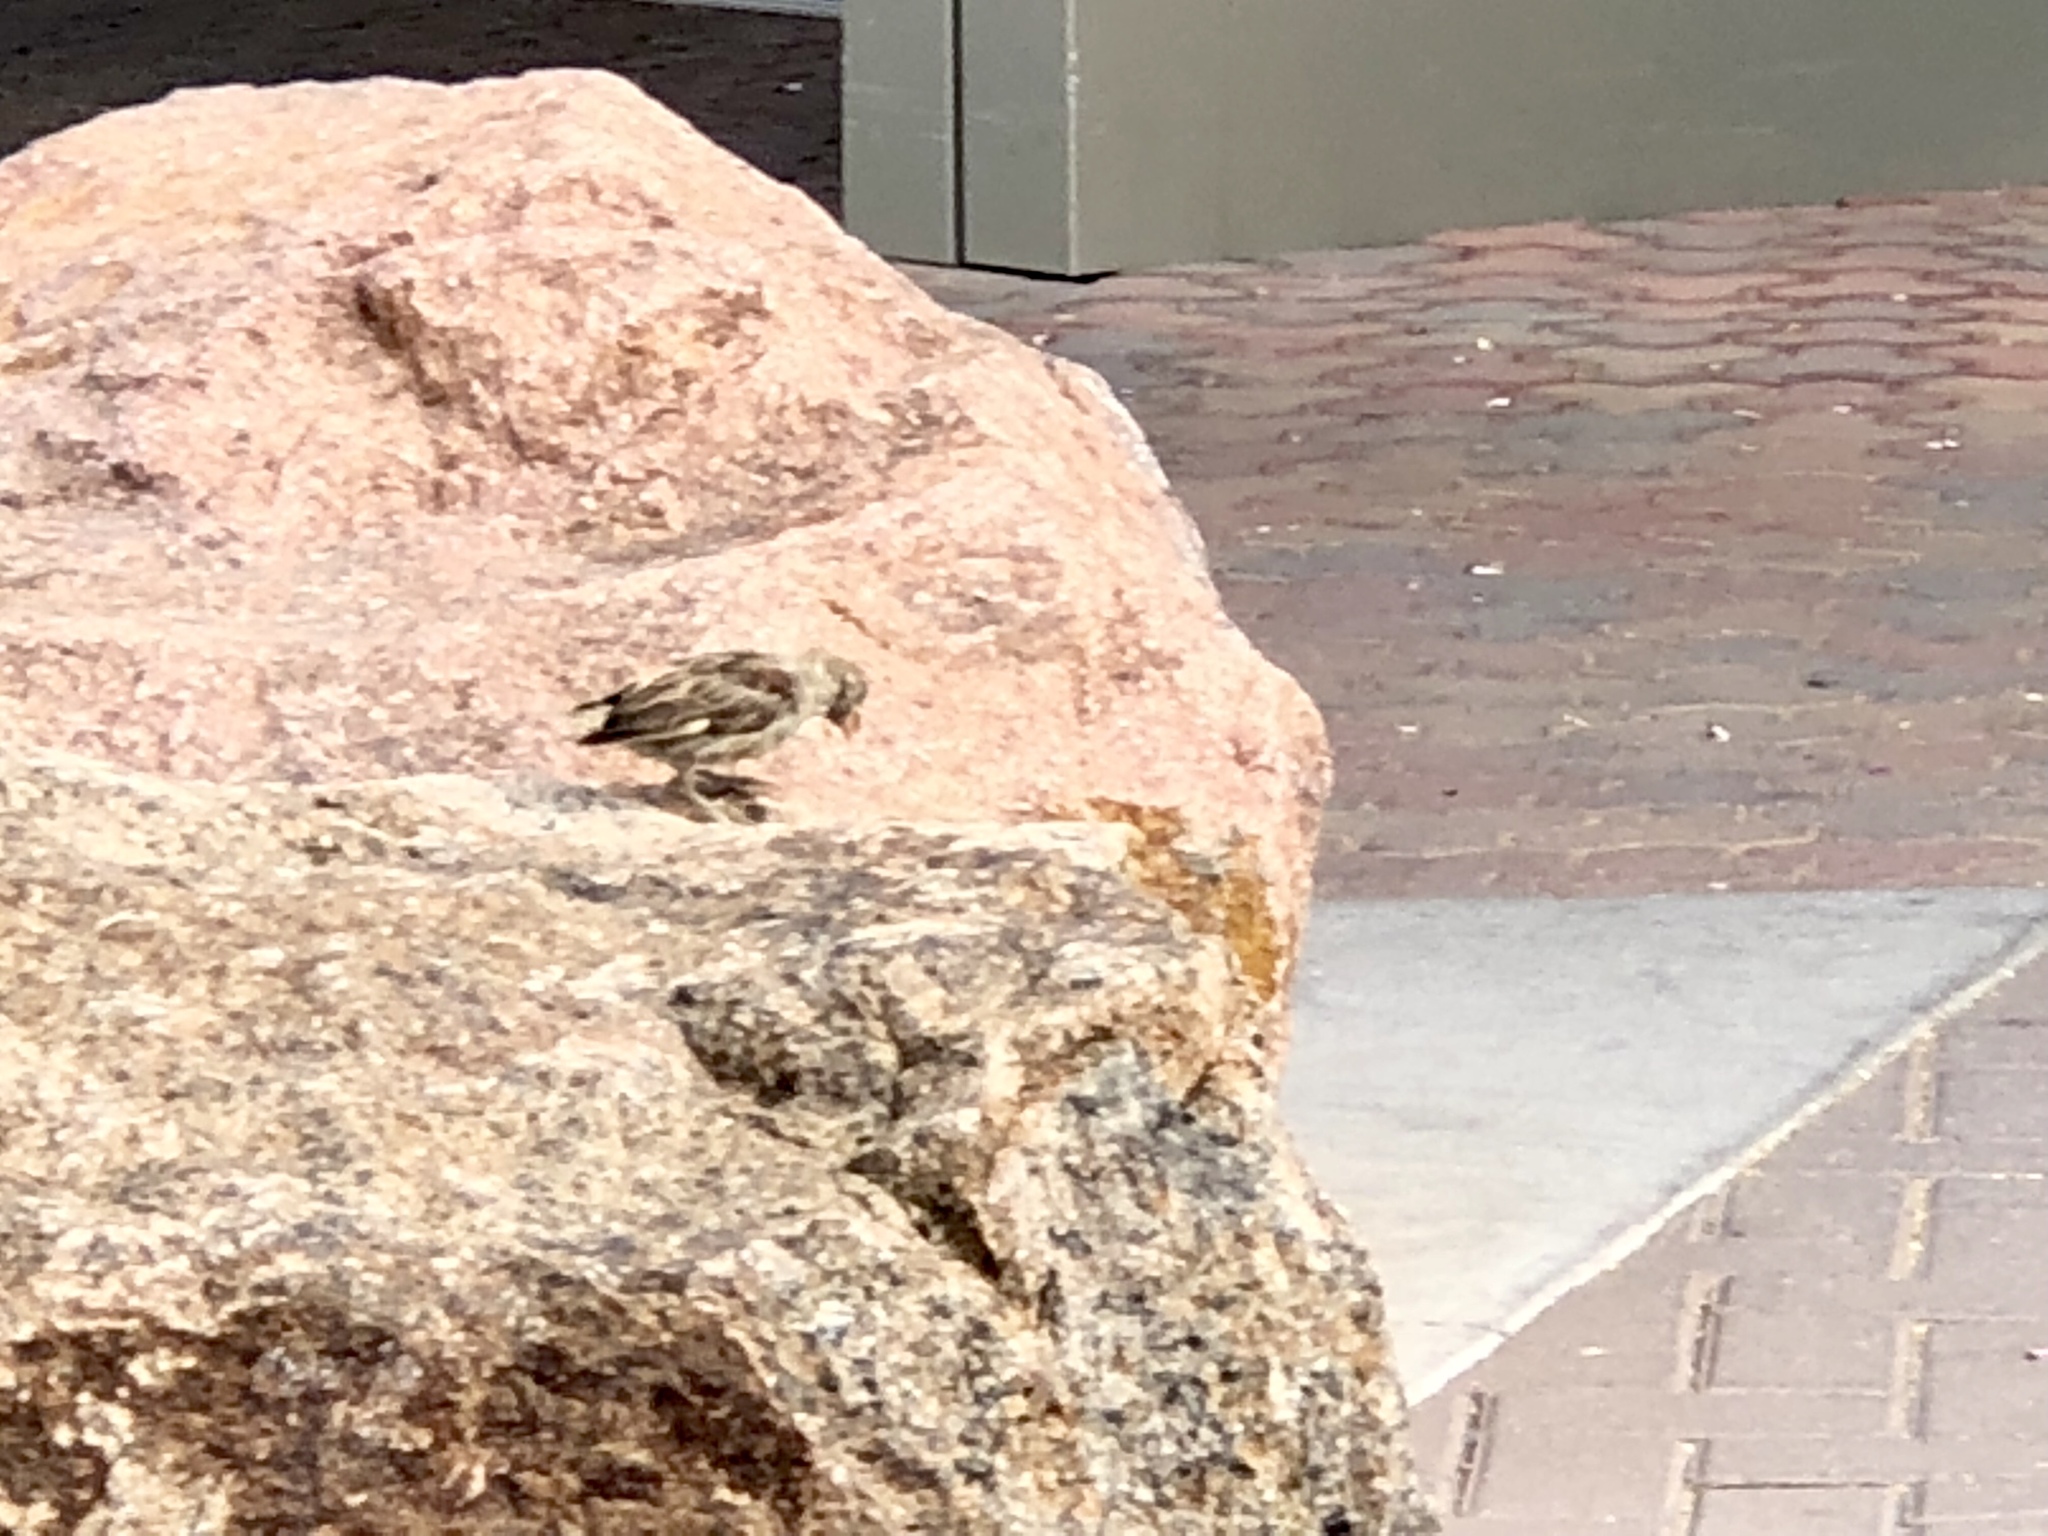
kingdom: Animalia
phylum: Chordata
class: Aves
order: Passeriformes
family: Passeridae
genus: Passer
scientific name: Passer domesticus
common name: House sparrow
